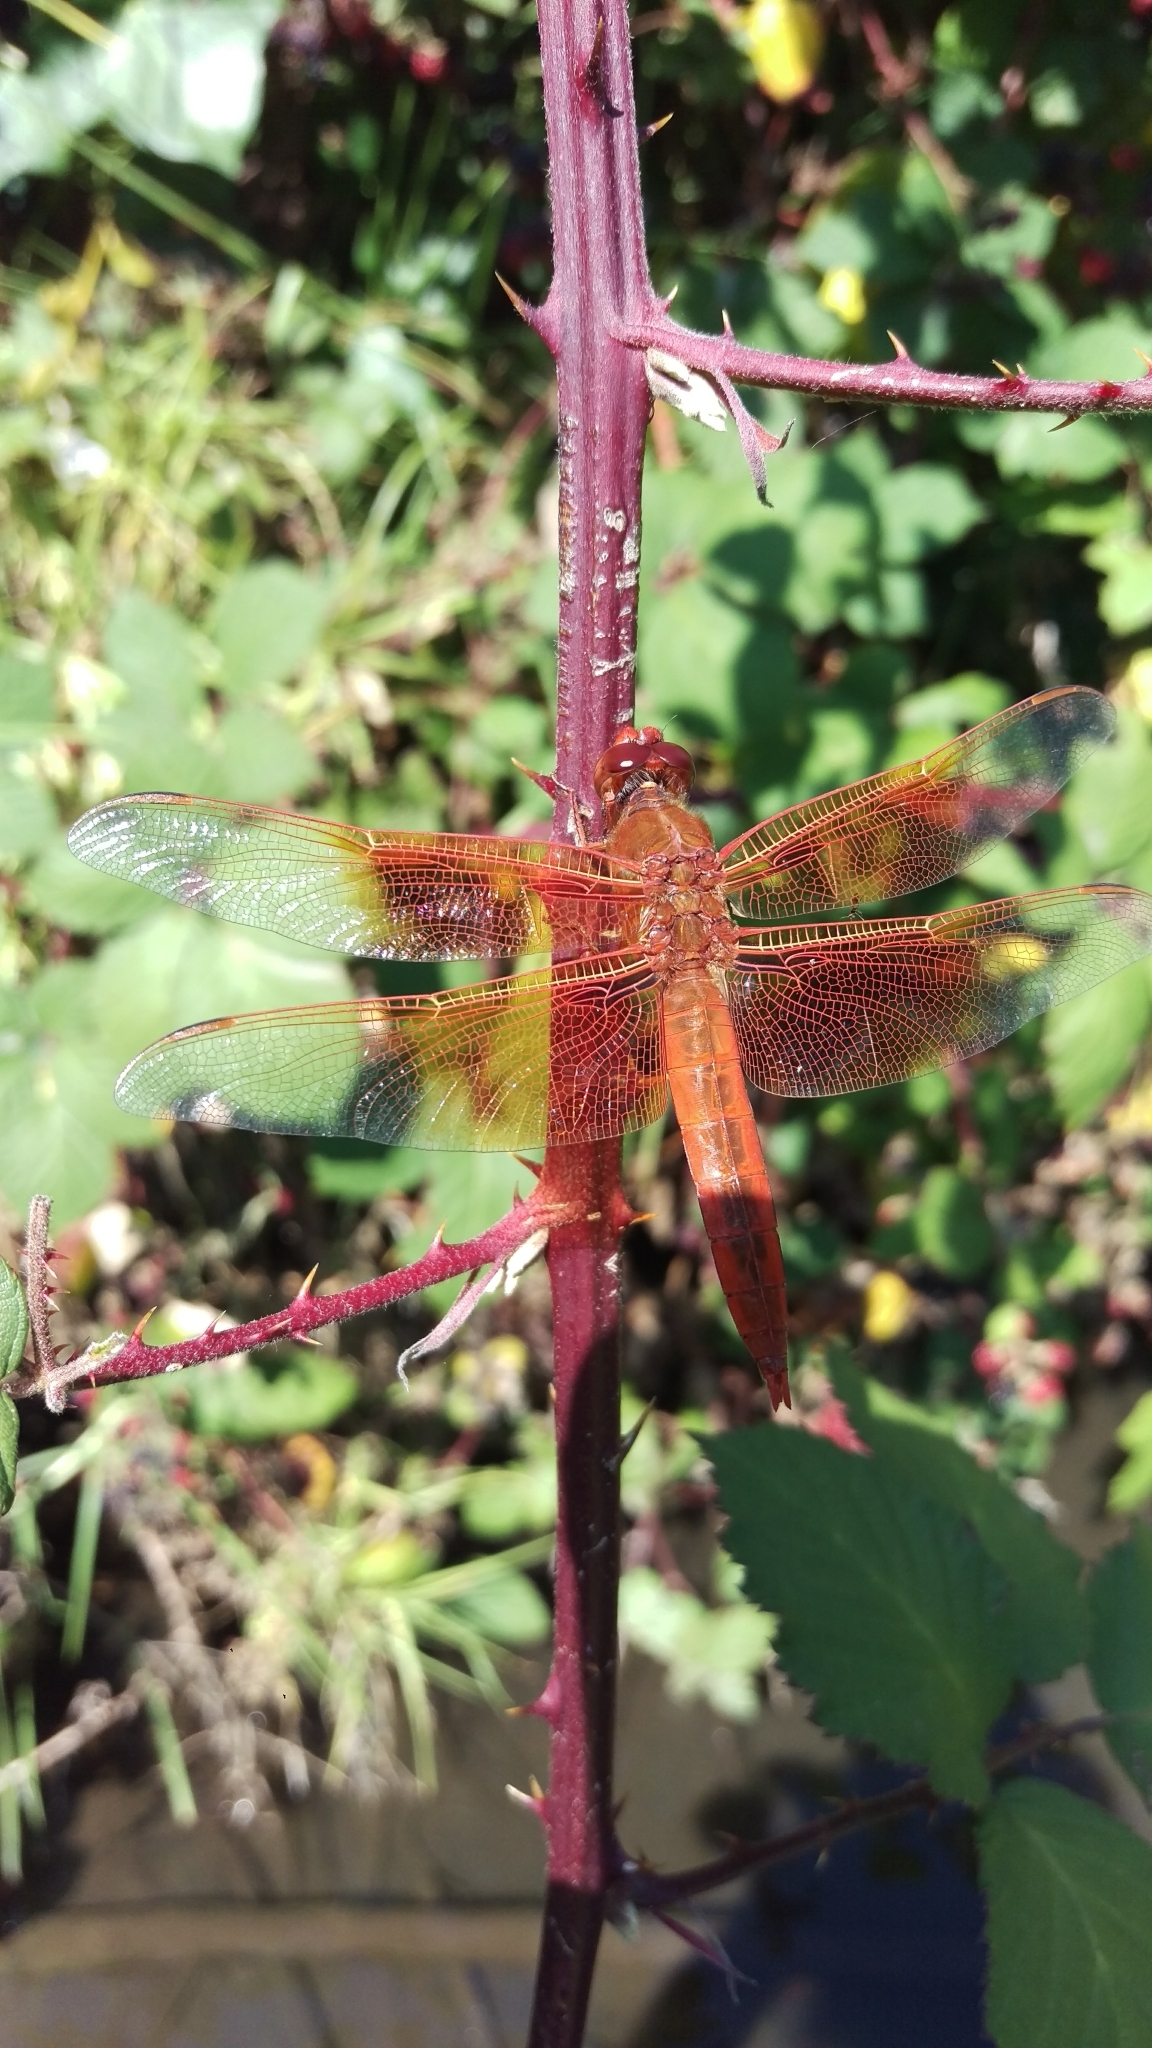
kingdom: Animalia
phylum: Arthropoda
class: Insecta
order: Odonata
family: Libellulidae
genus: Libellula
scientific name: Libellula saturata
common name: Flame skimmer
